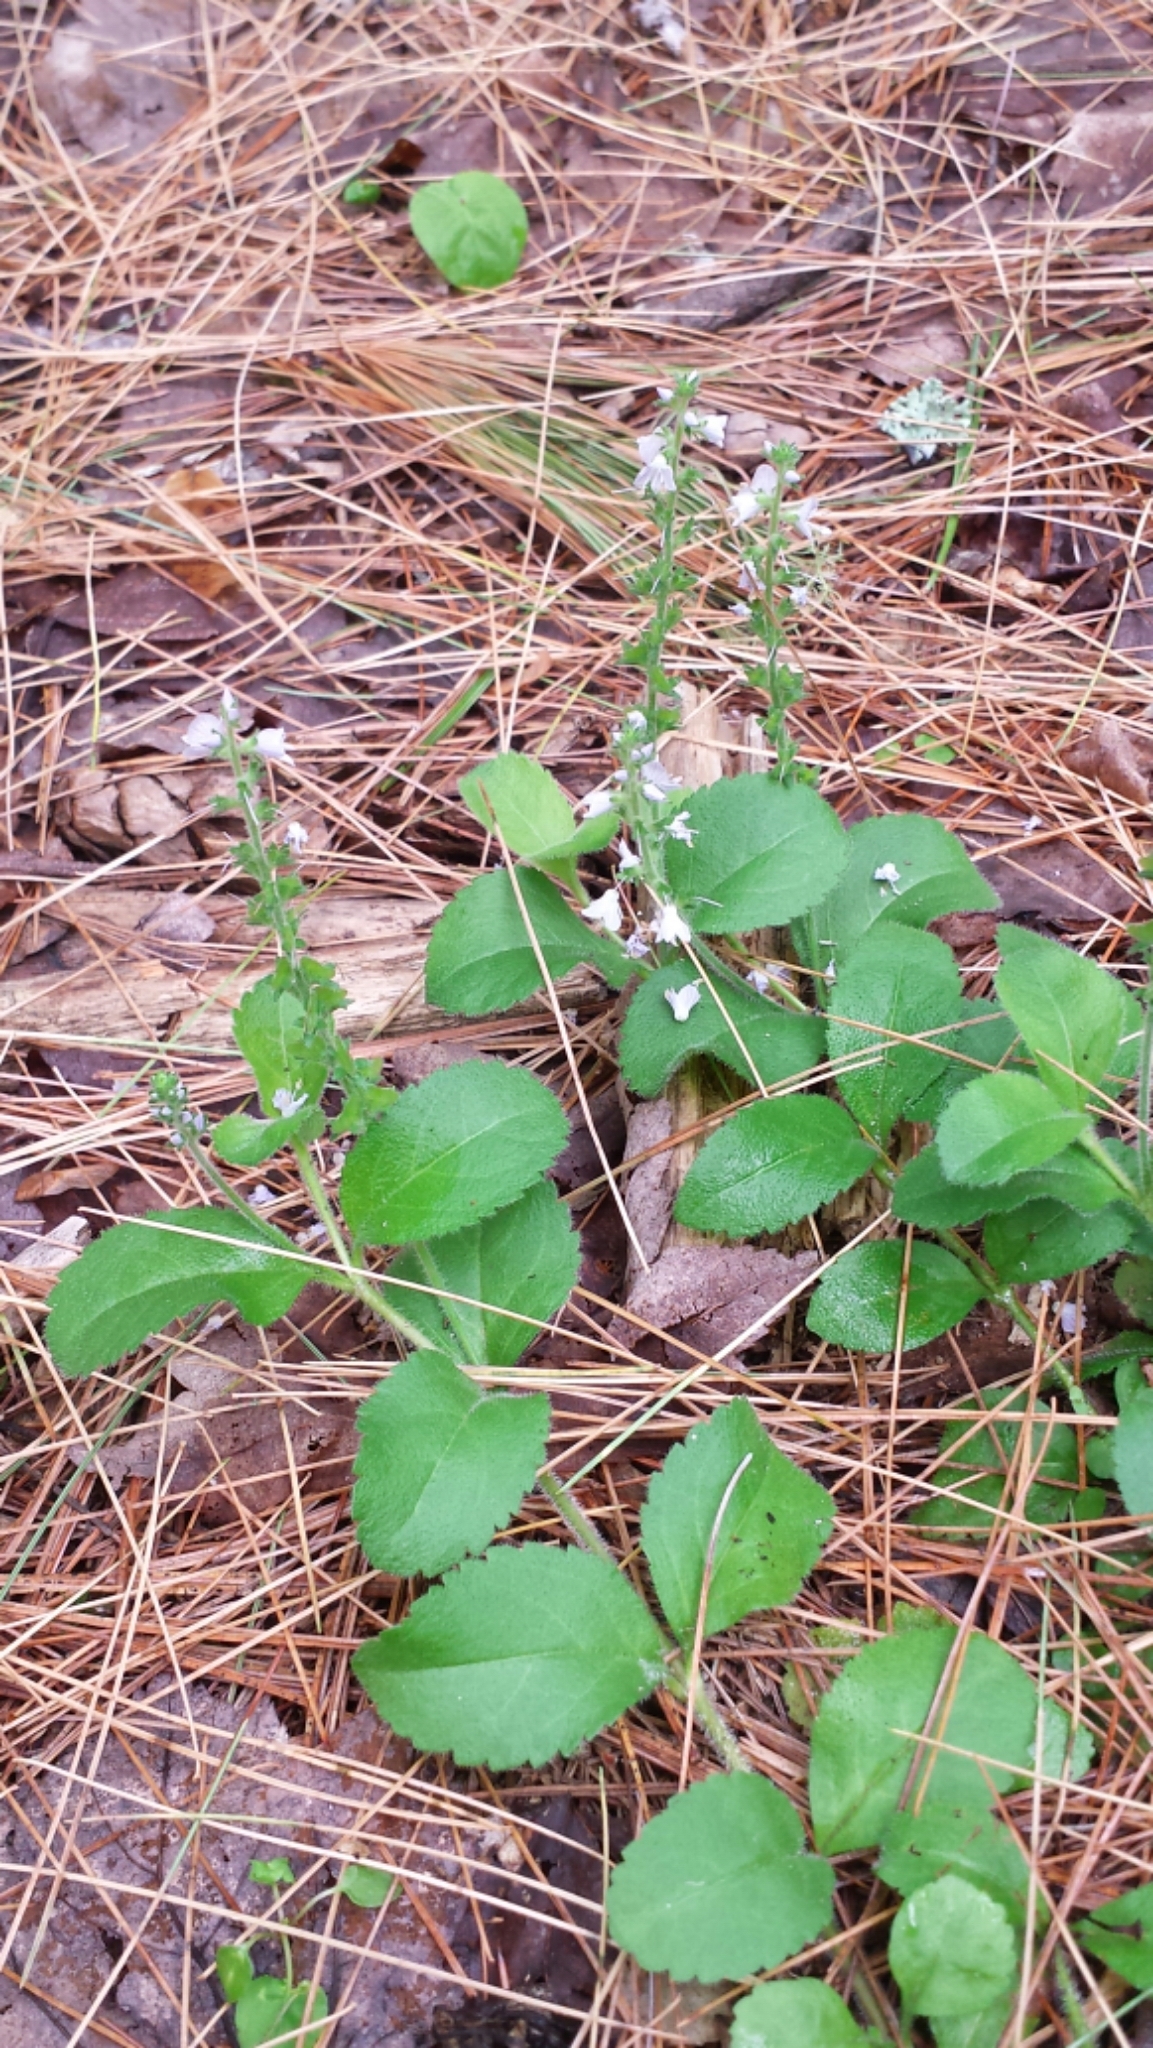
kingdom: Plantae
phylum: Tracheophyta
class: Magnoliopsida
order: Lamiales
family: Plantaginaceae
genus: Veronica
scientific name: Veronica officinalis
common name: Common speedwell
